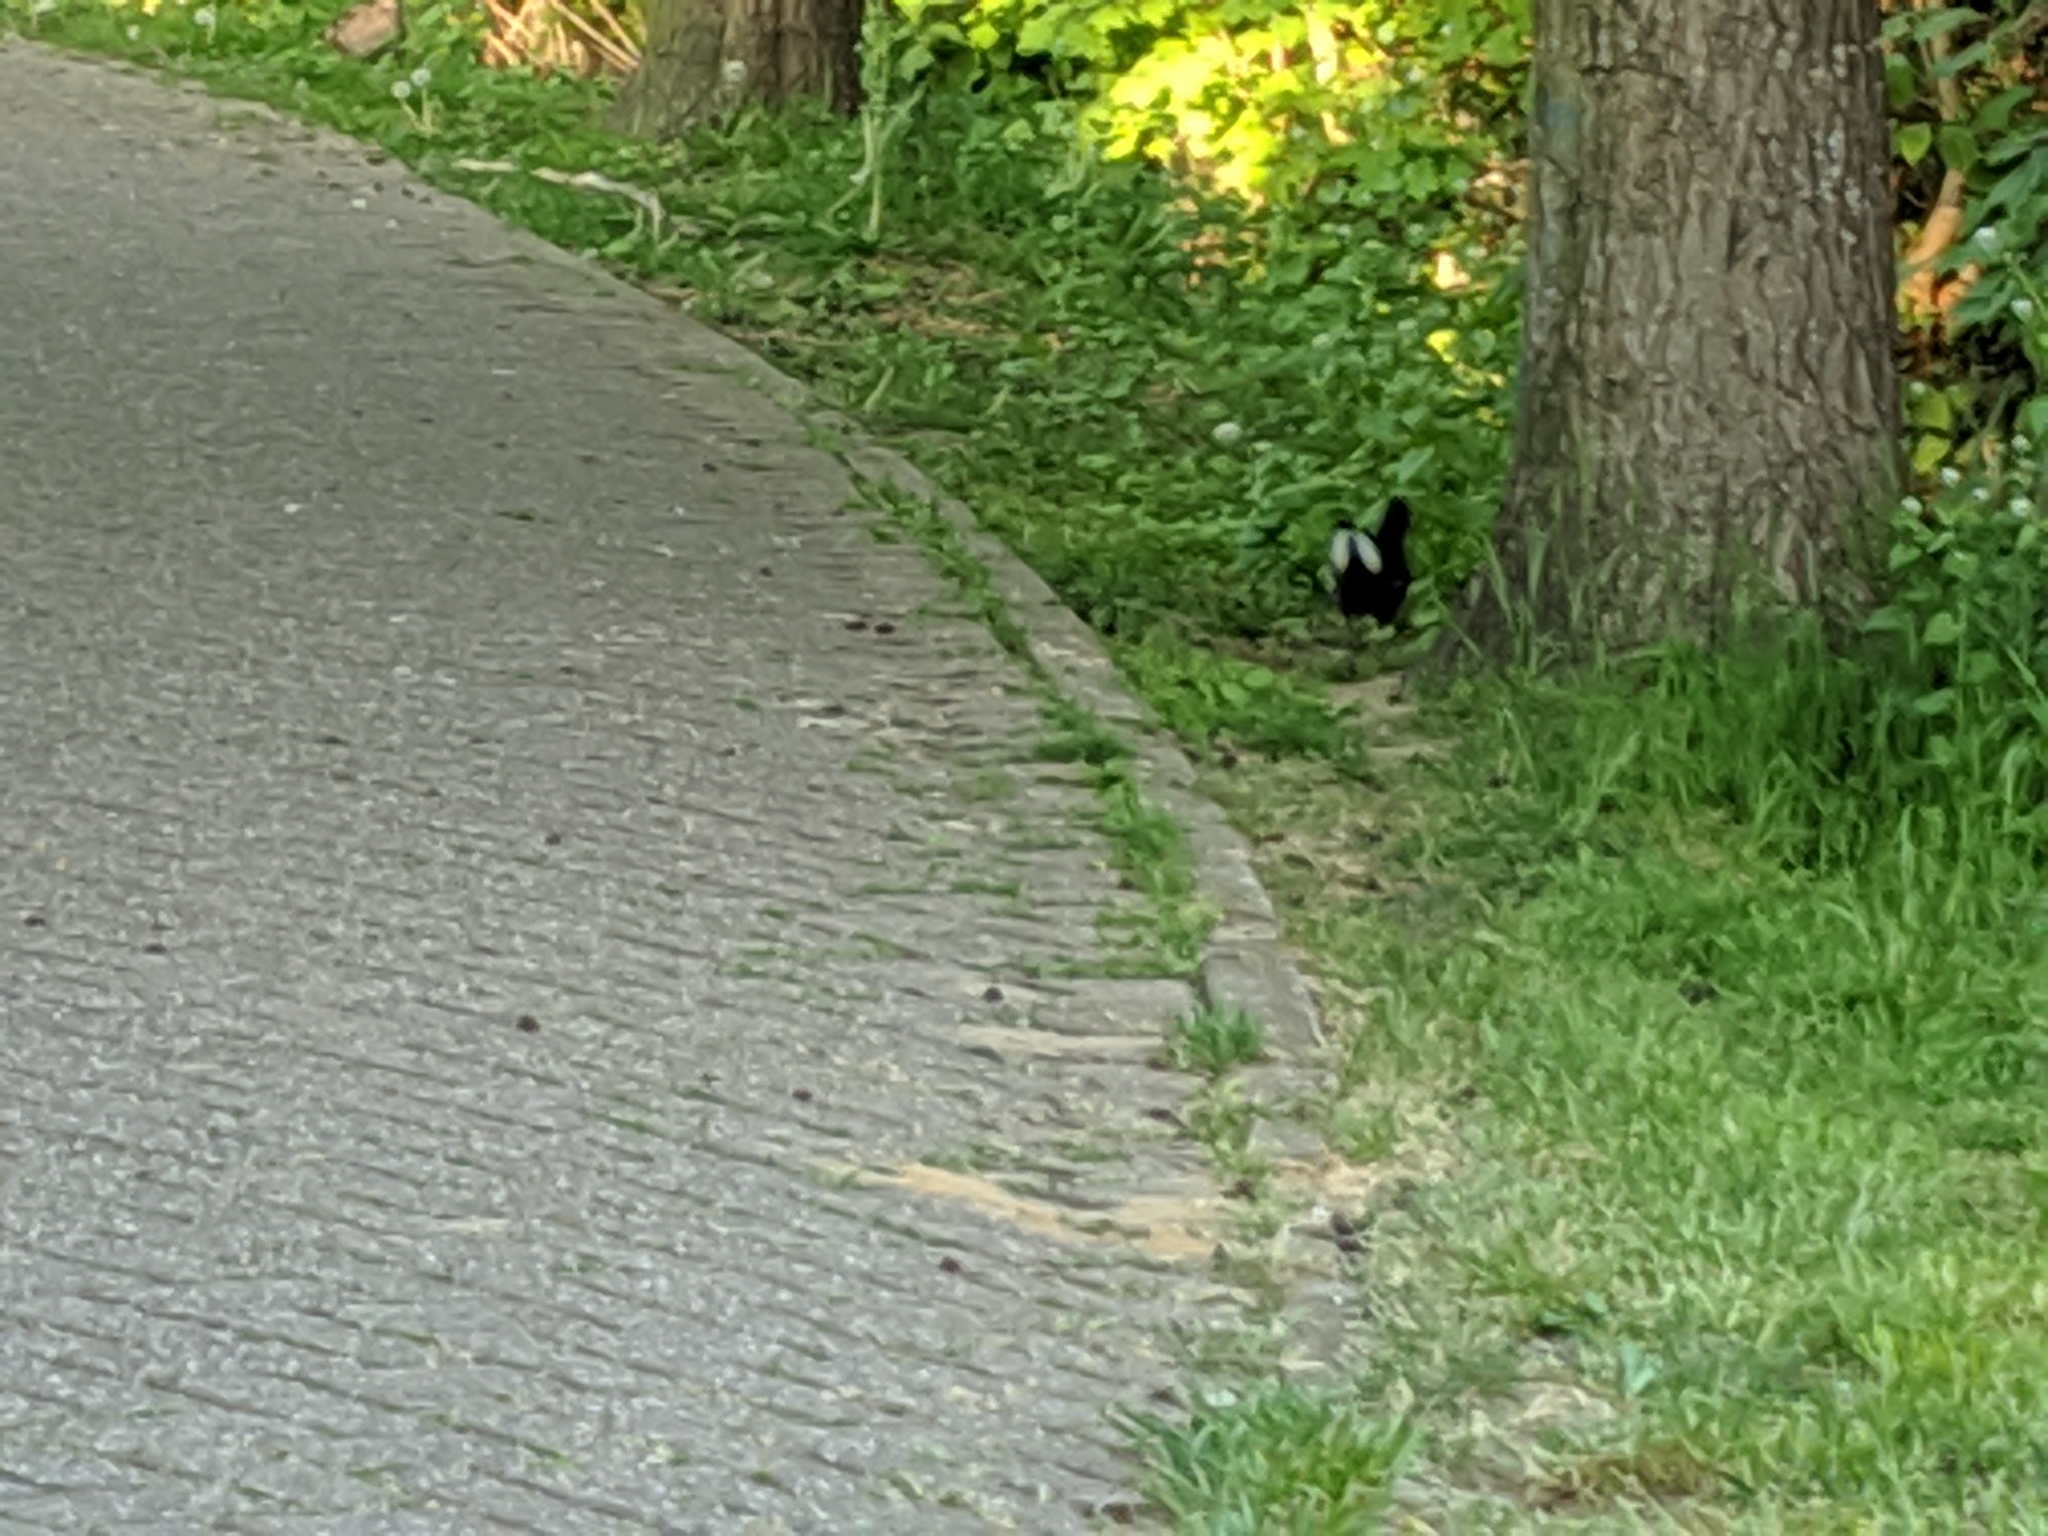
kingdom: Animalia
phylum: Chordata
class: Aves
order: Gruiformes
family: Rallidae
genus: Gallinula
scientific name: Gallinula chloropus
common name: Common moorhen
